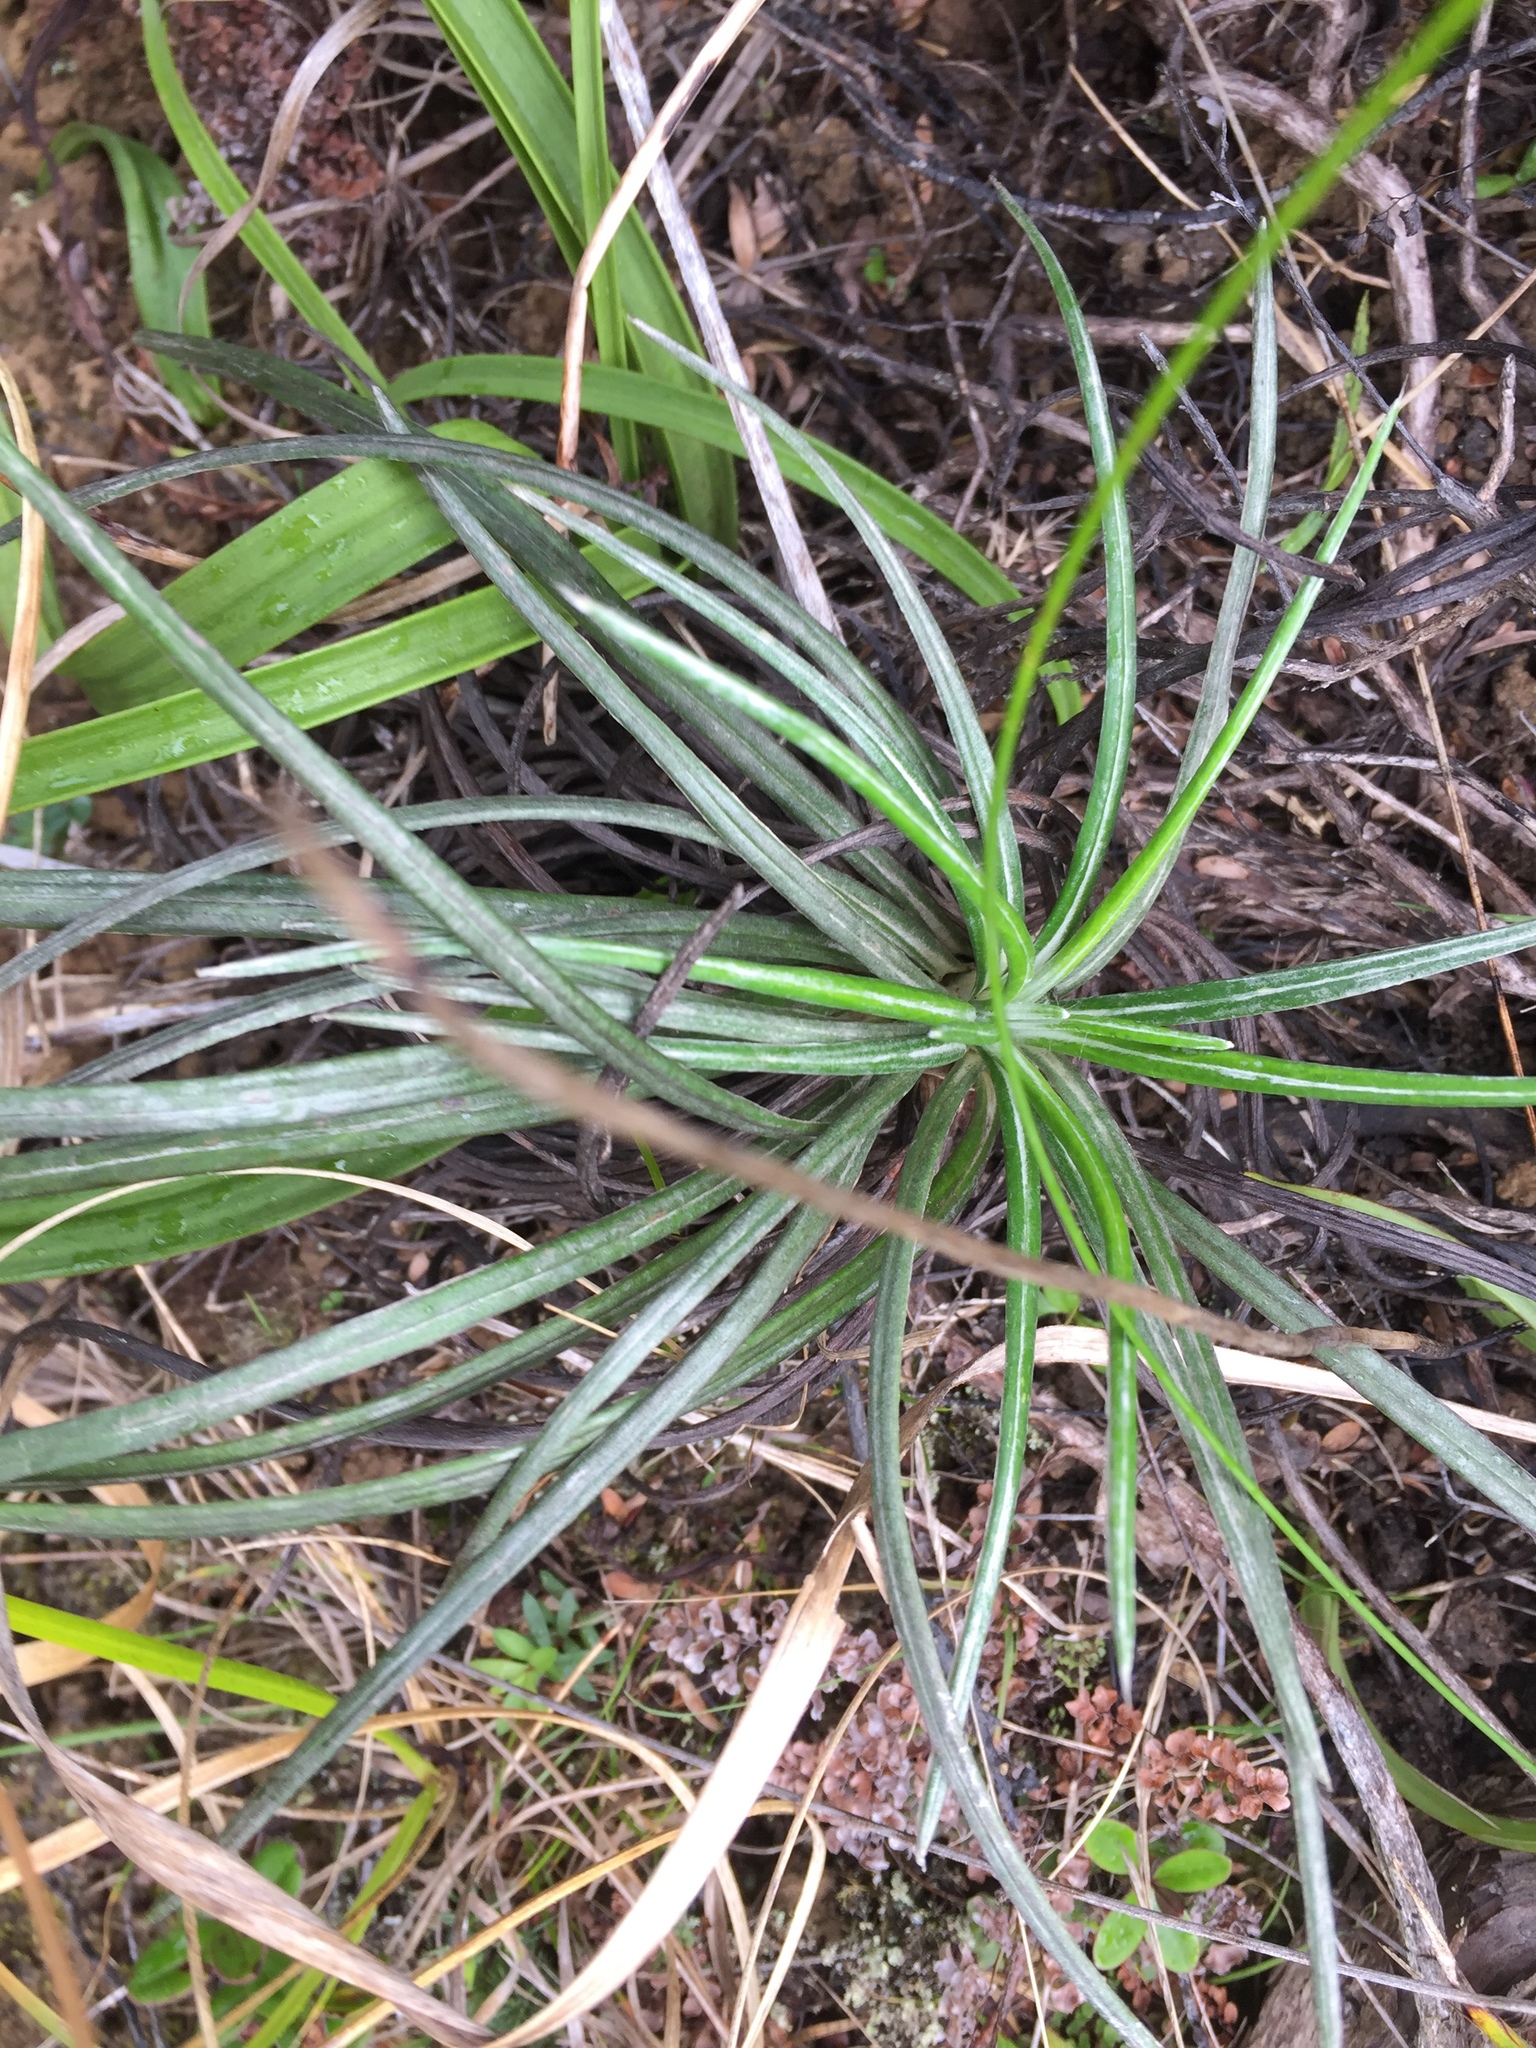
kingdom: Plantae
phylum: Tracheophyta
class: Magnoliopsida
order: Asterales
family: Asteraceae
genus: Celmisia
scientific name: Celmisia major
